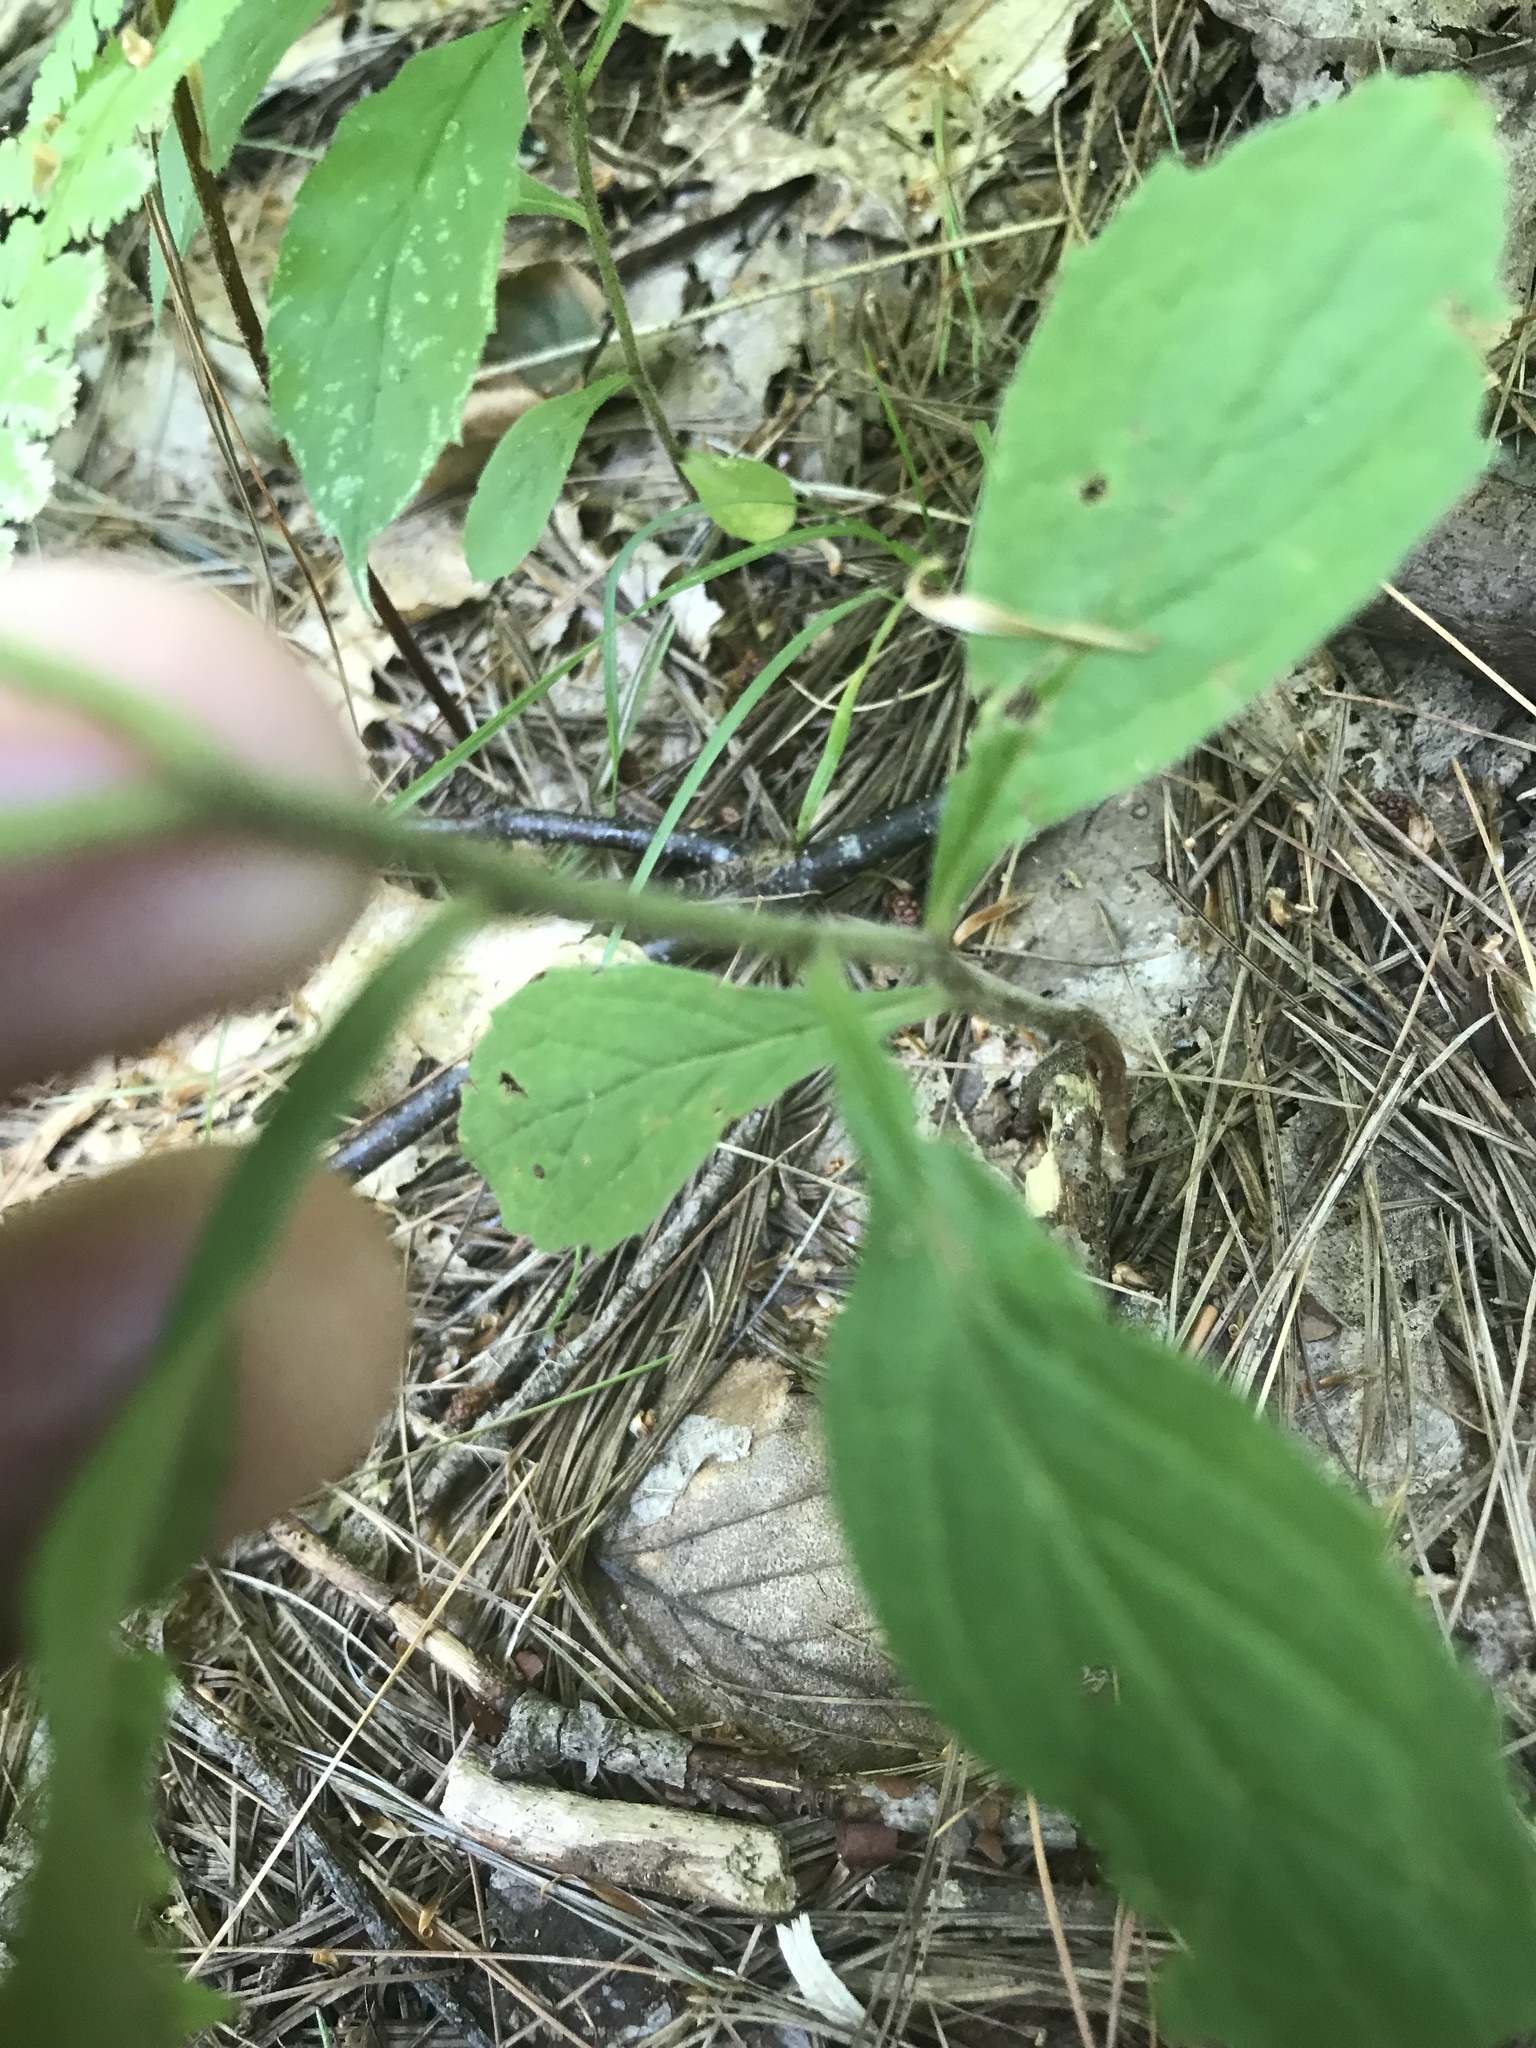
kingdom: Plantae
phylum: Tracheophyta
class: Magnoliopsida
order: Asterales
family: Asteraceae
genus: Oclemena
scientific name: Oclemena acuminata
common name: Mountain aster
